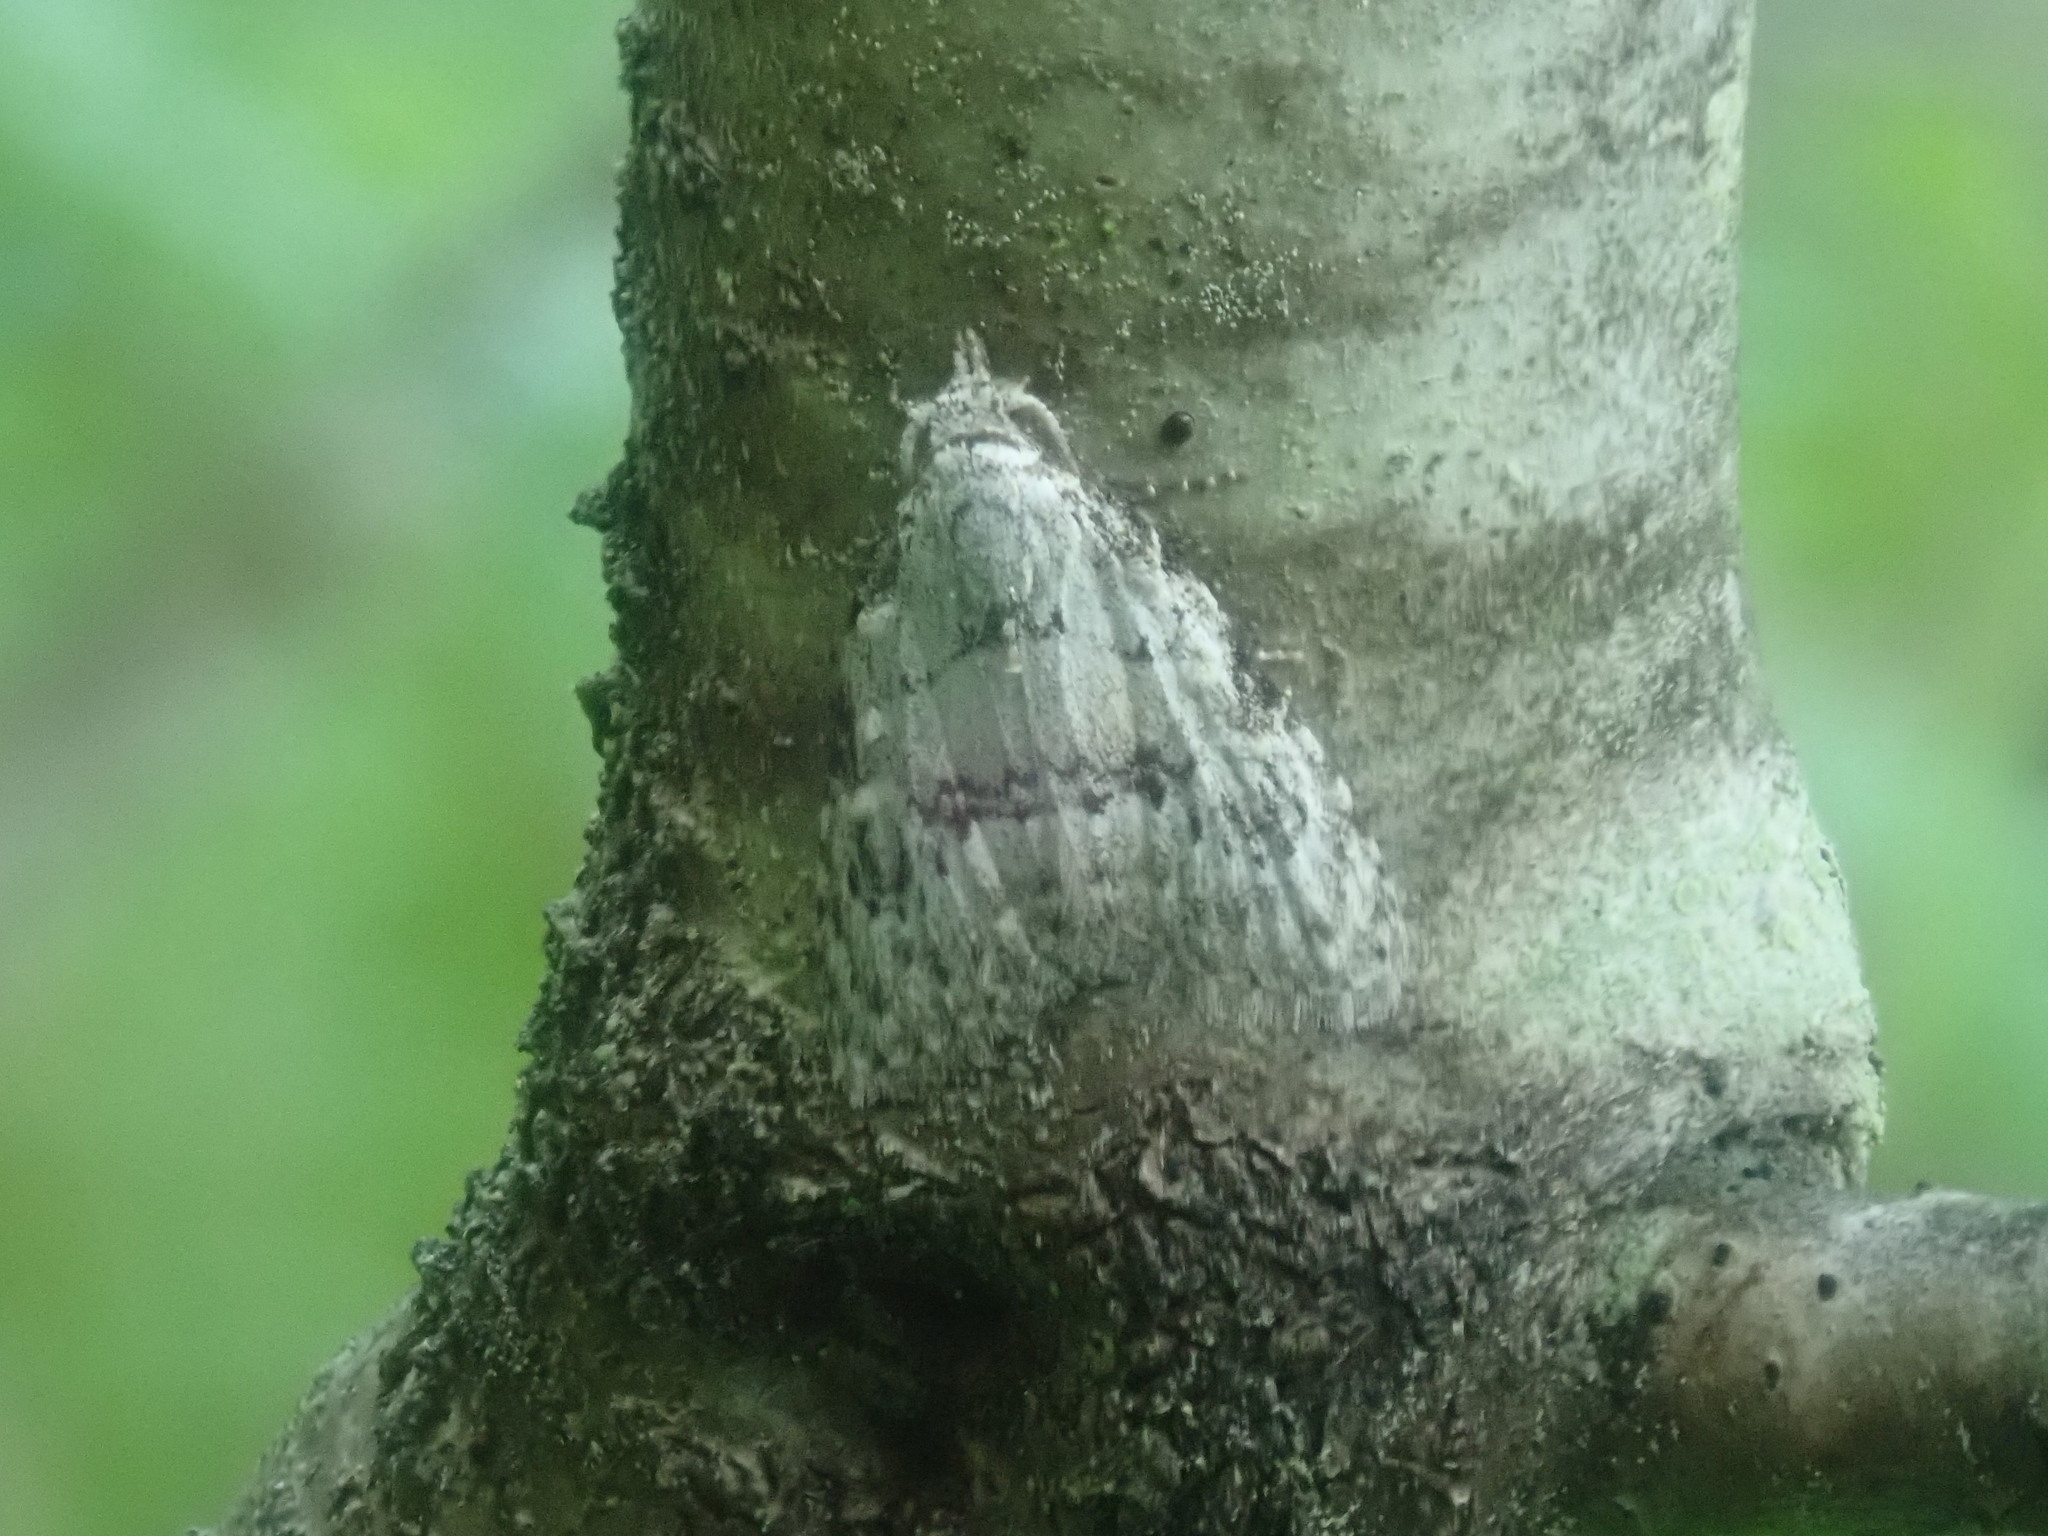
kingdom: Animalia
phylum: Arthropoda
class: Insecta
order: Lepidoptera
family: Nolidae
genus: Meganola
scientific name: Meganola minuscula
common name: Confused meganola moth
